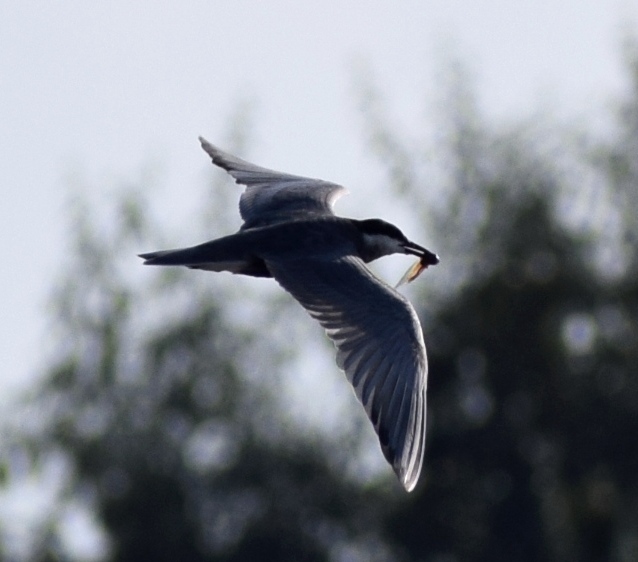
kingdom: Animalia
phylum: Chordata
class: Aves
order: Charadriiformes
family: Laridae
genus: Chlidonias
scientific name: Chlidonias hybrida
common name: Whiskered tern
